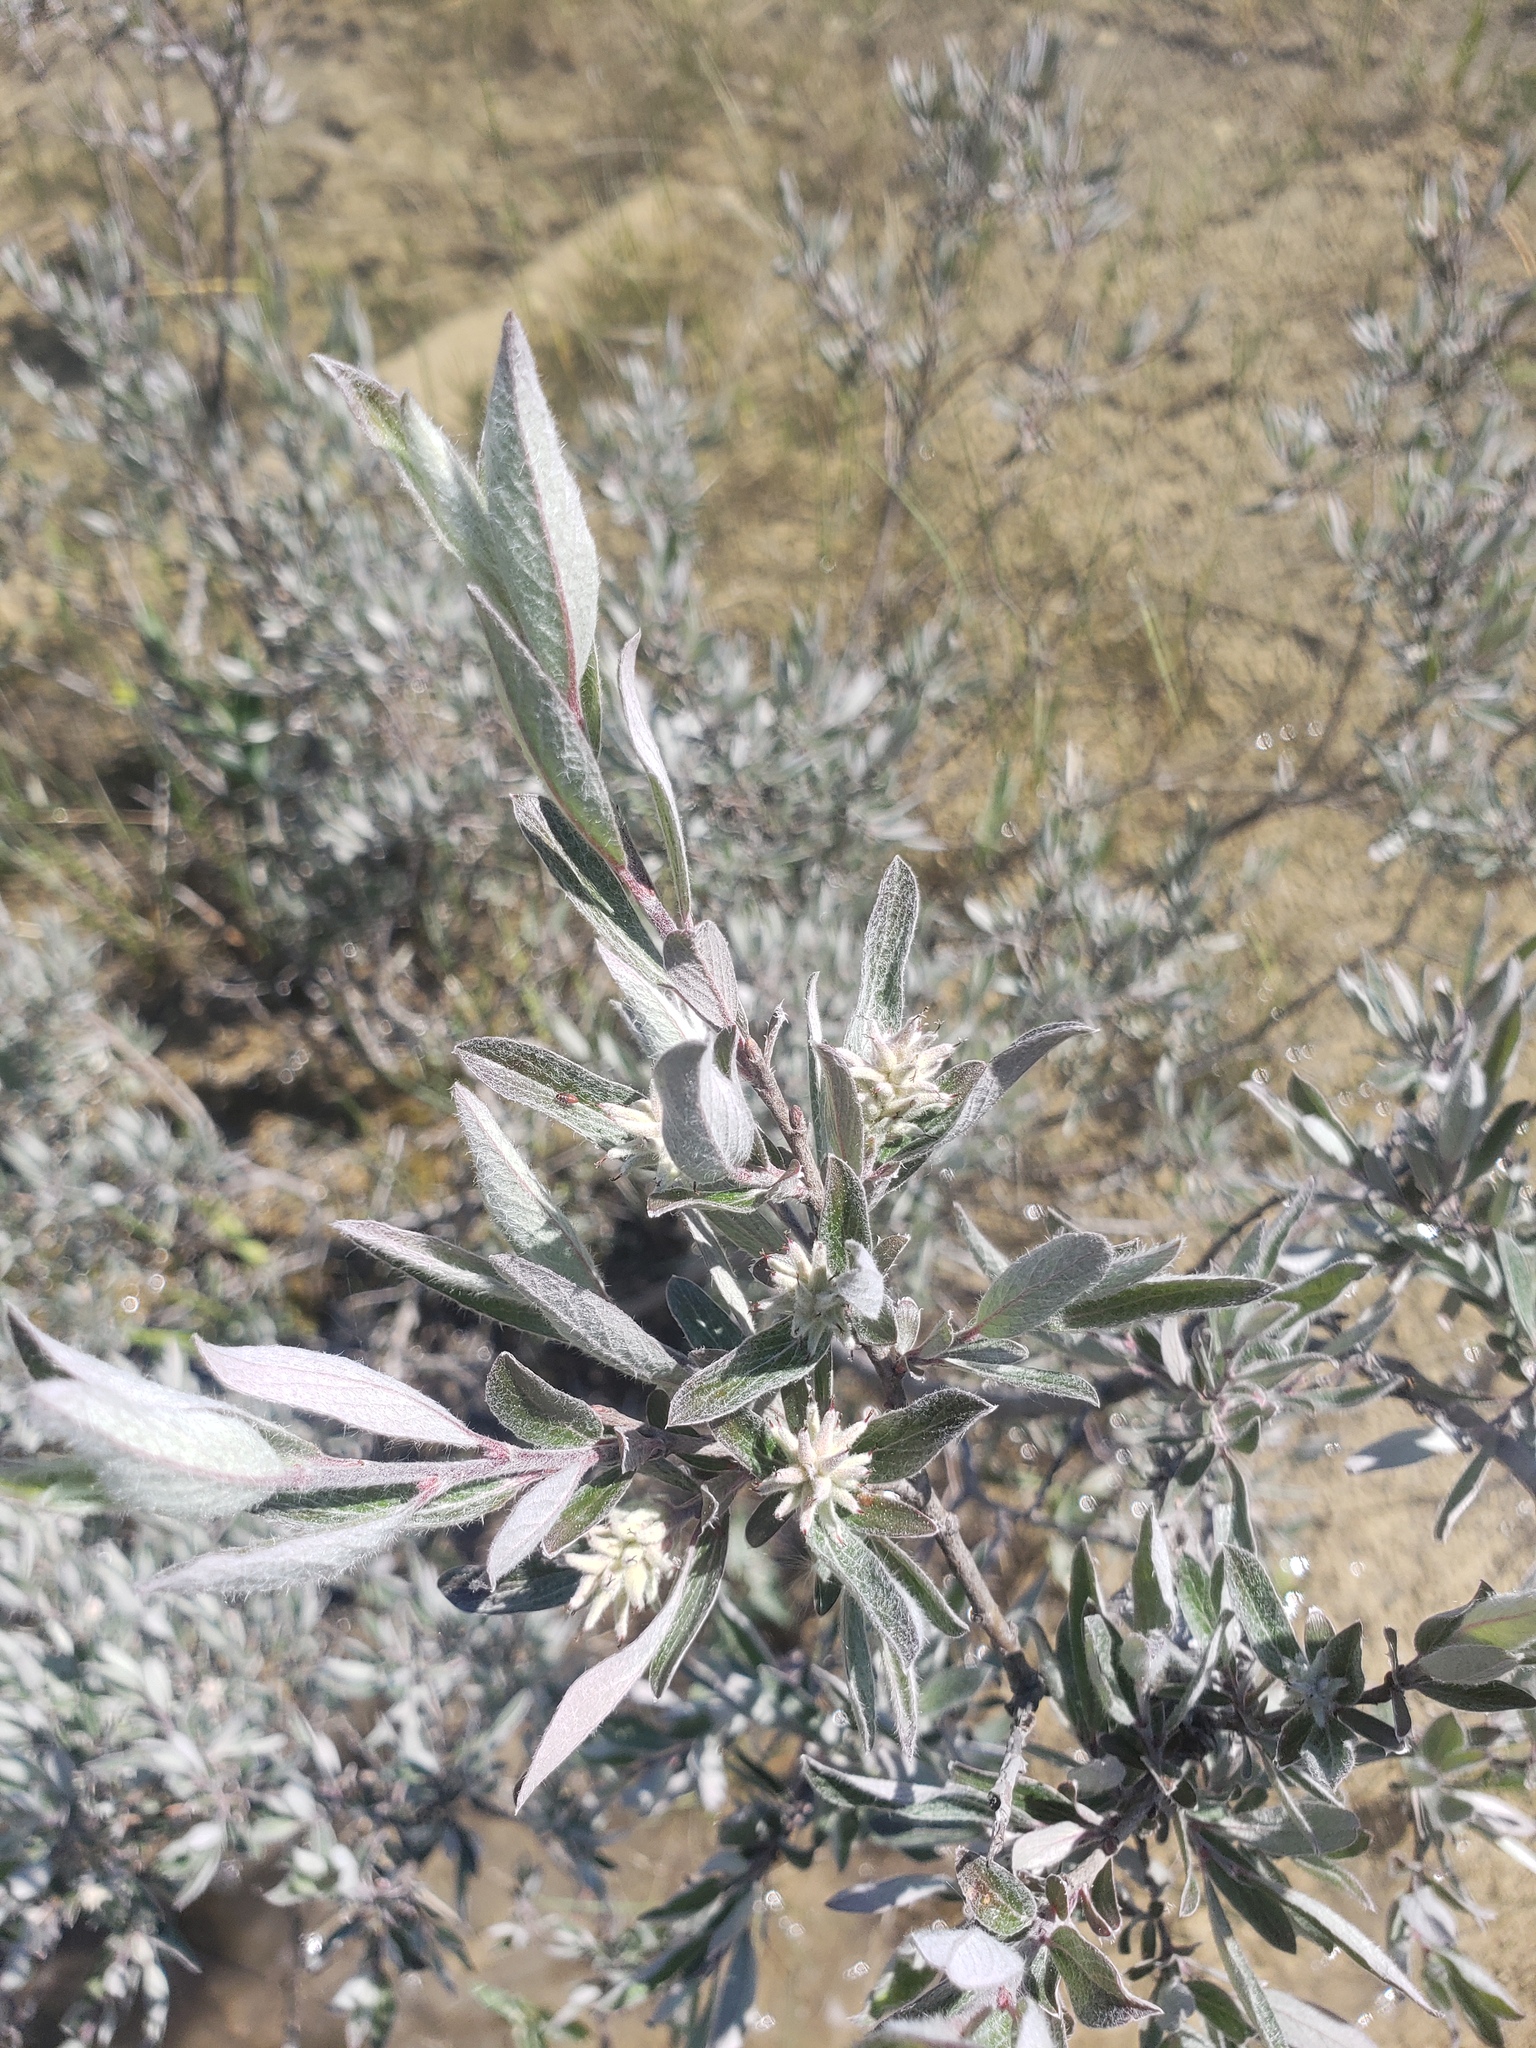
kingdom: Plantae
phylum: Tracheophyta
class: Magnoliopsida
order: Malpighiales
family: Salicaceae
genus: Salix
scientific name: Salix brachycarpa
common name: Barren-ground willow
